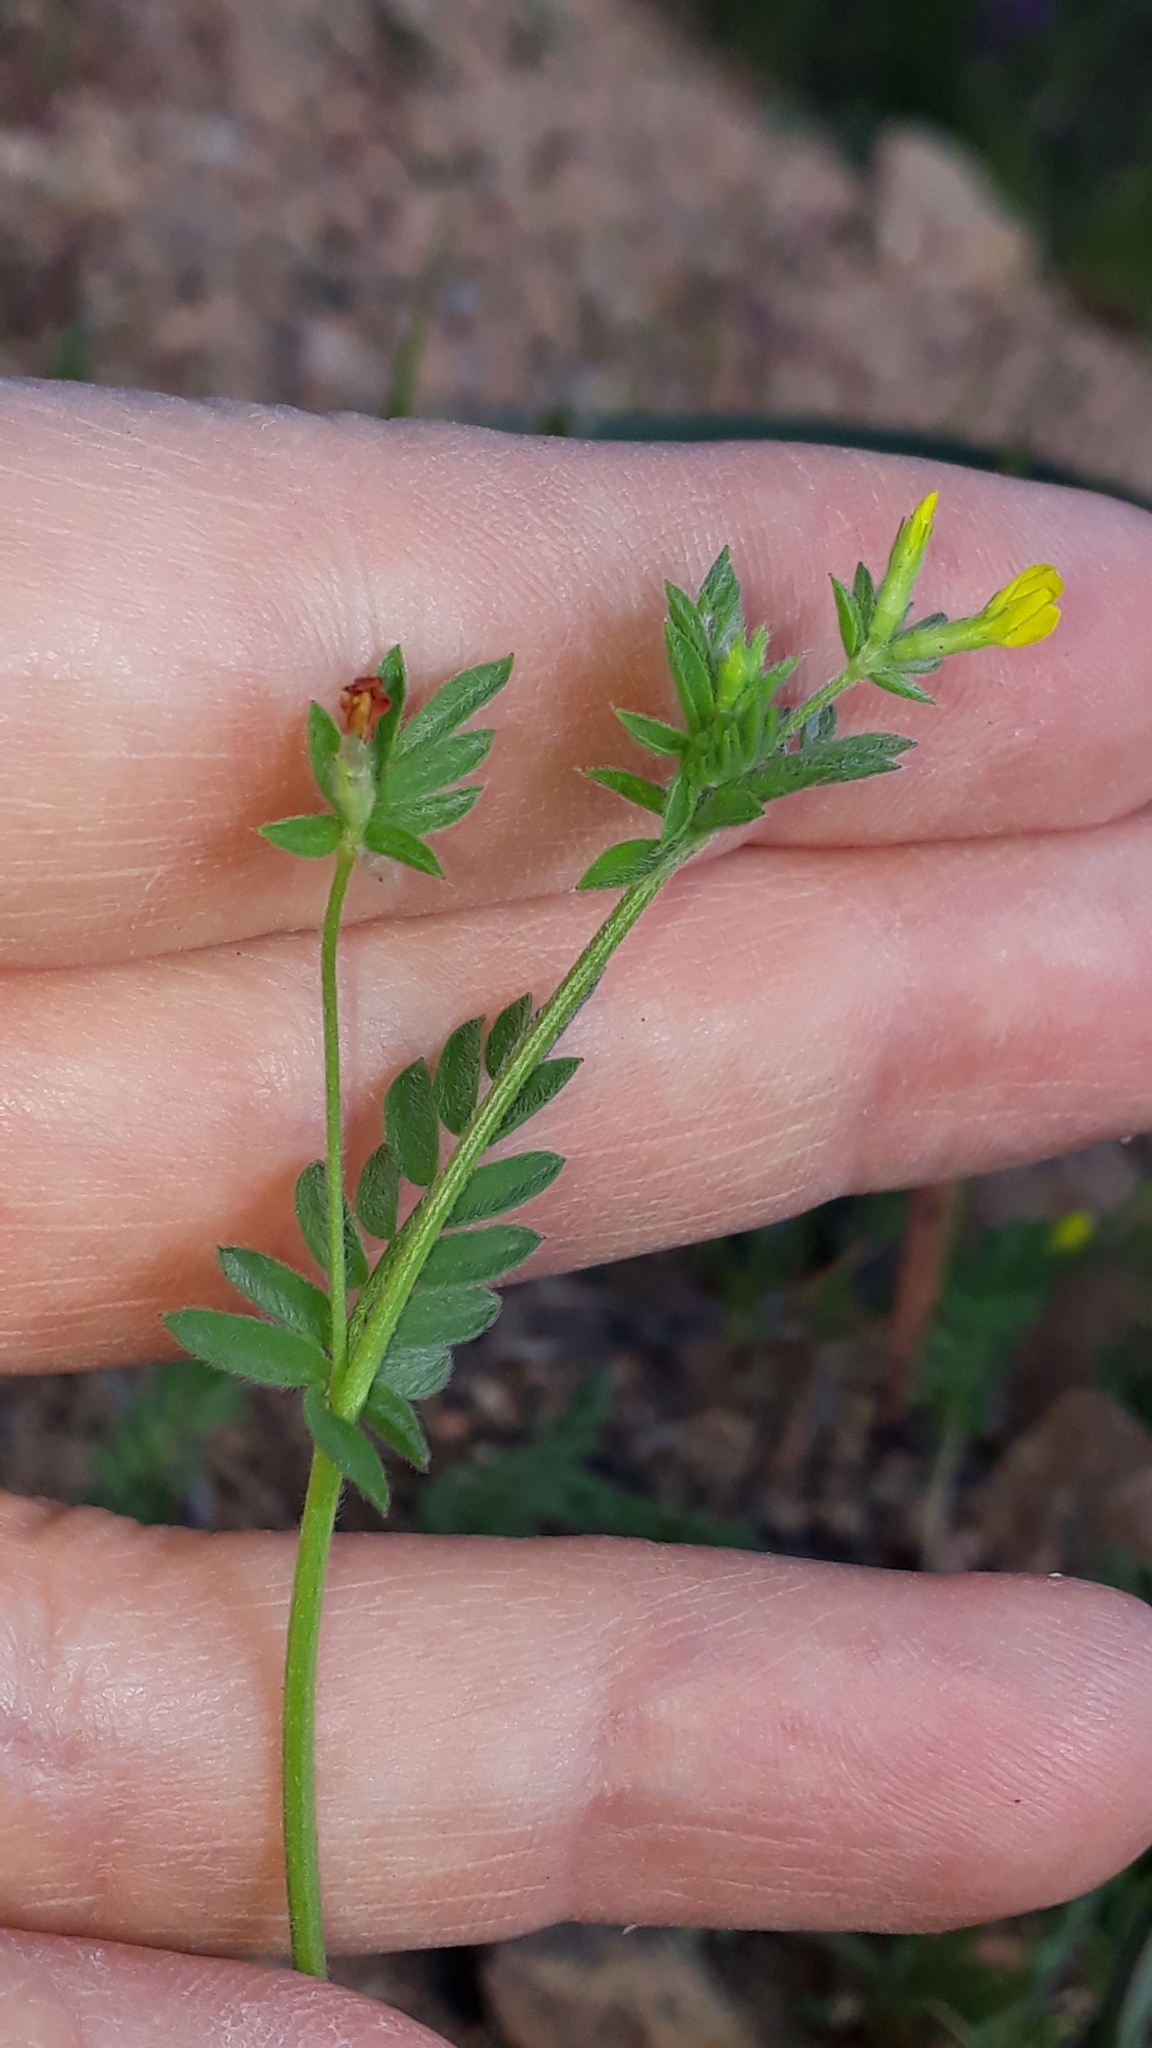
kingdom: Plantae
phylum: Tracheophyta
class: Magnoliopsida
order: Fabales
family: Fabaceae
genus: Ornithopus
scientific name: Ornithopus compressus
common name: Yellow serradella
